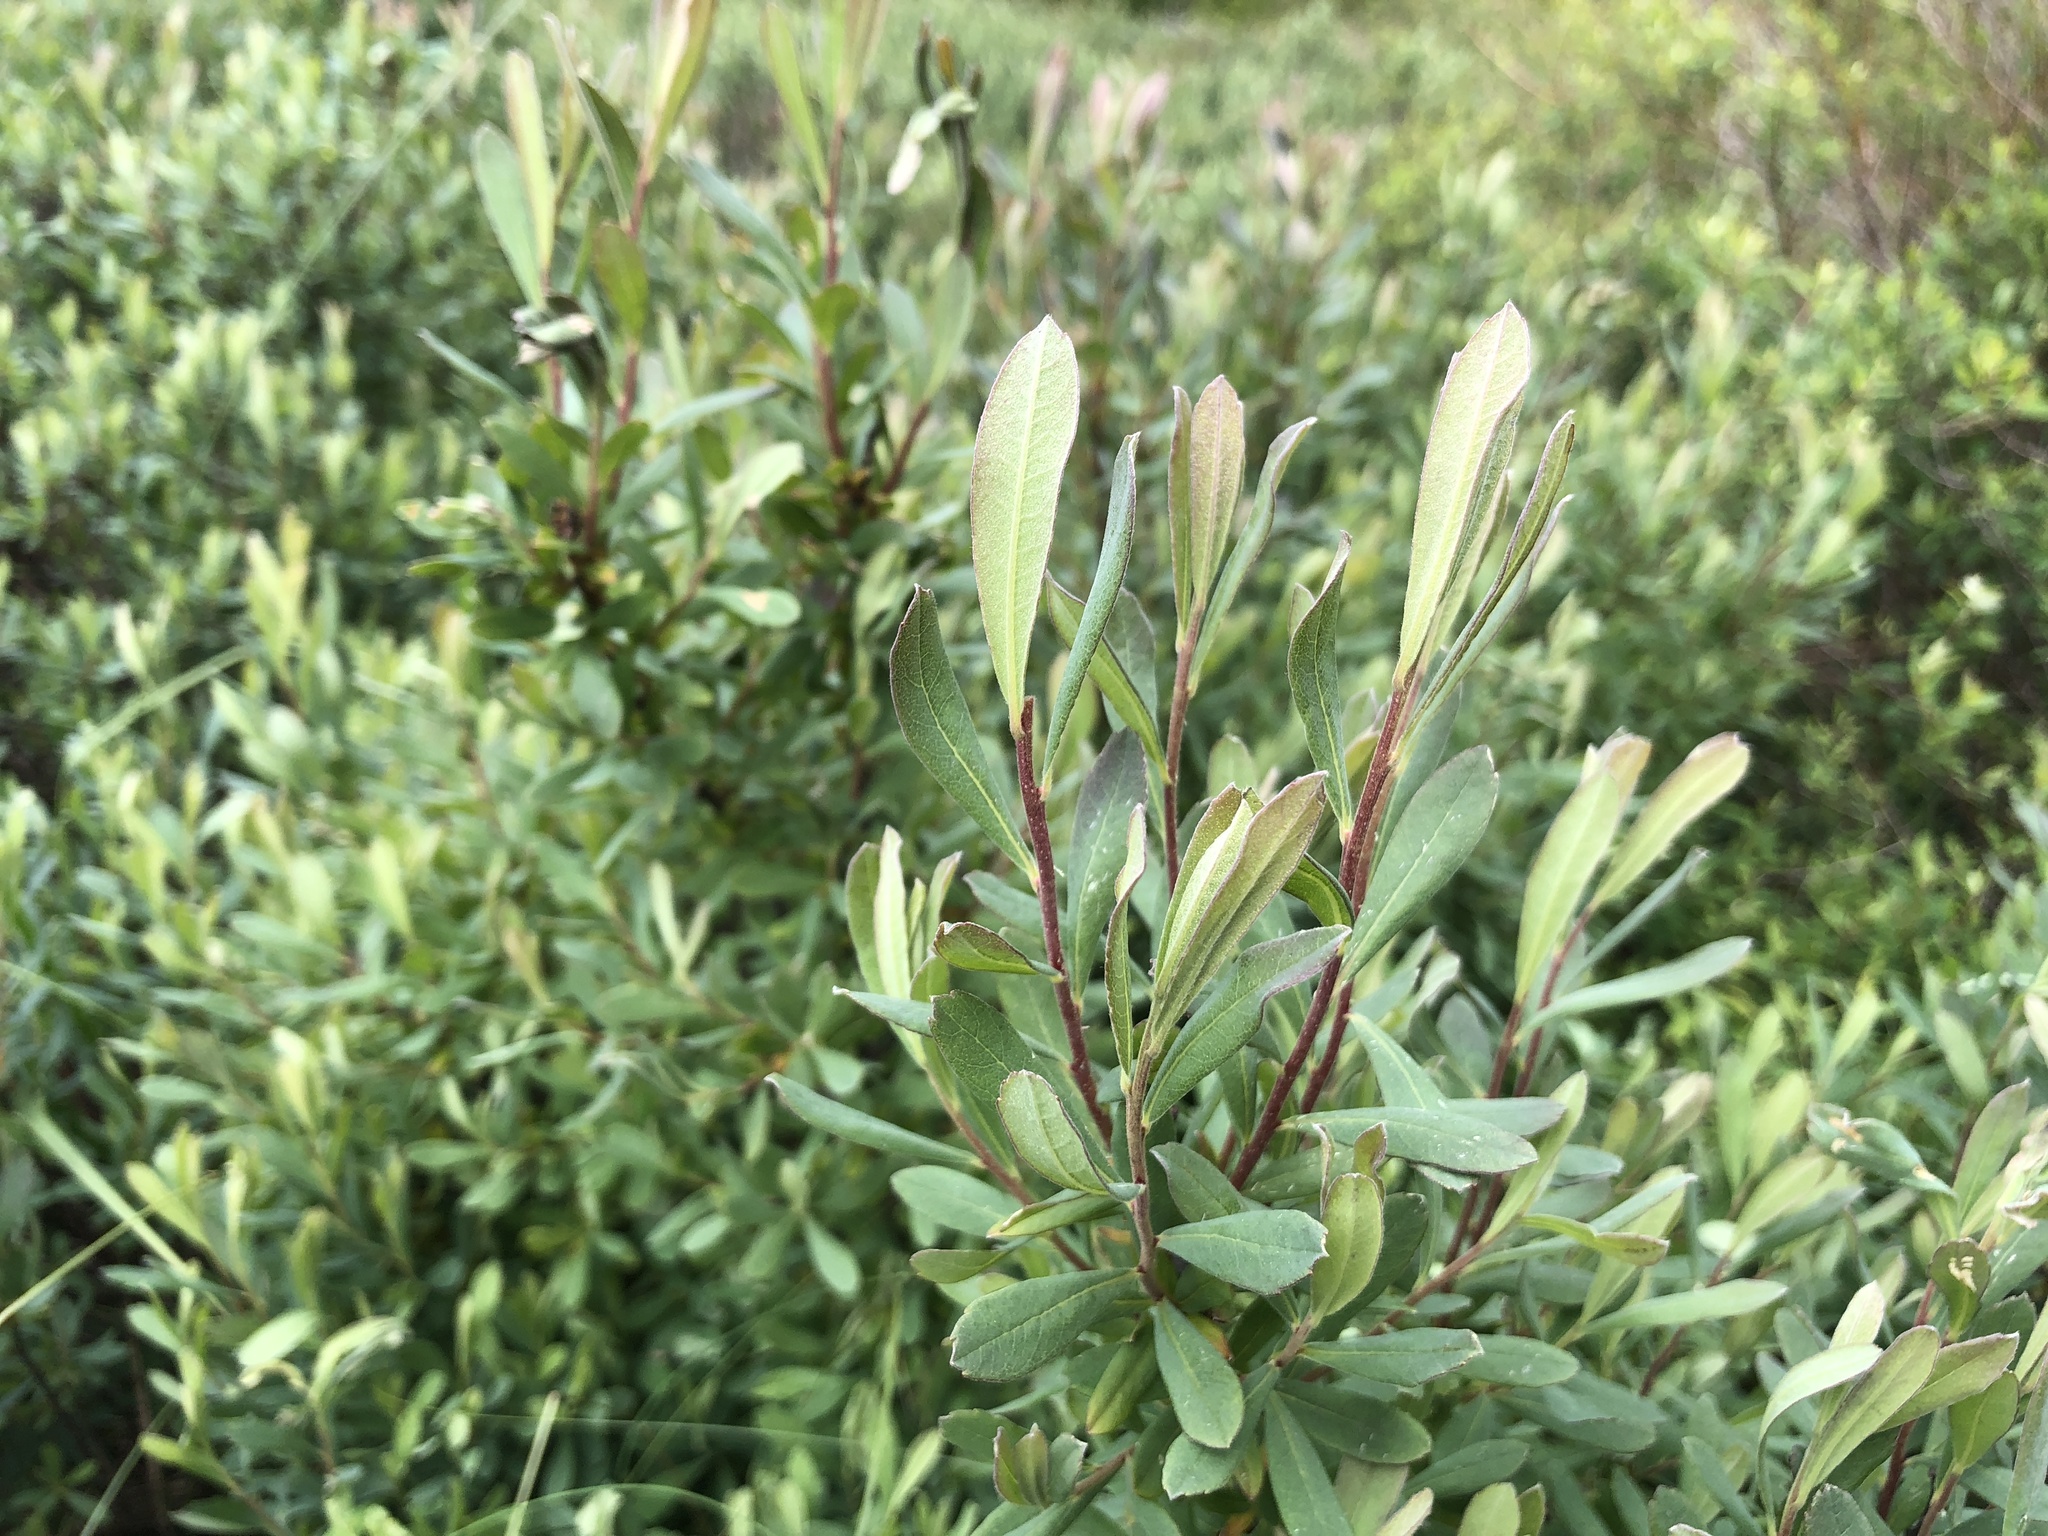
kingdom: Plantae
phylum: Tracheophyta
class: Magnoliopsida
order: Fagales
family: Myricaceae
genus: Myrica
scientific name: Myrica gale
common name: Sweet gale
